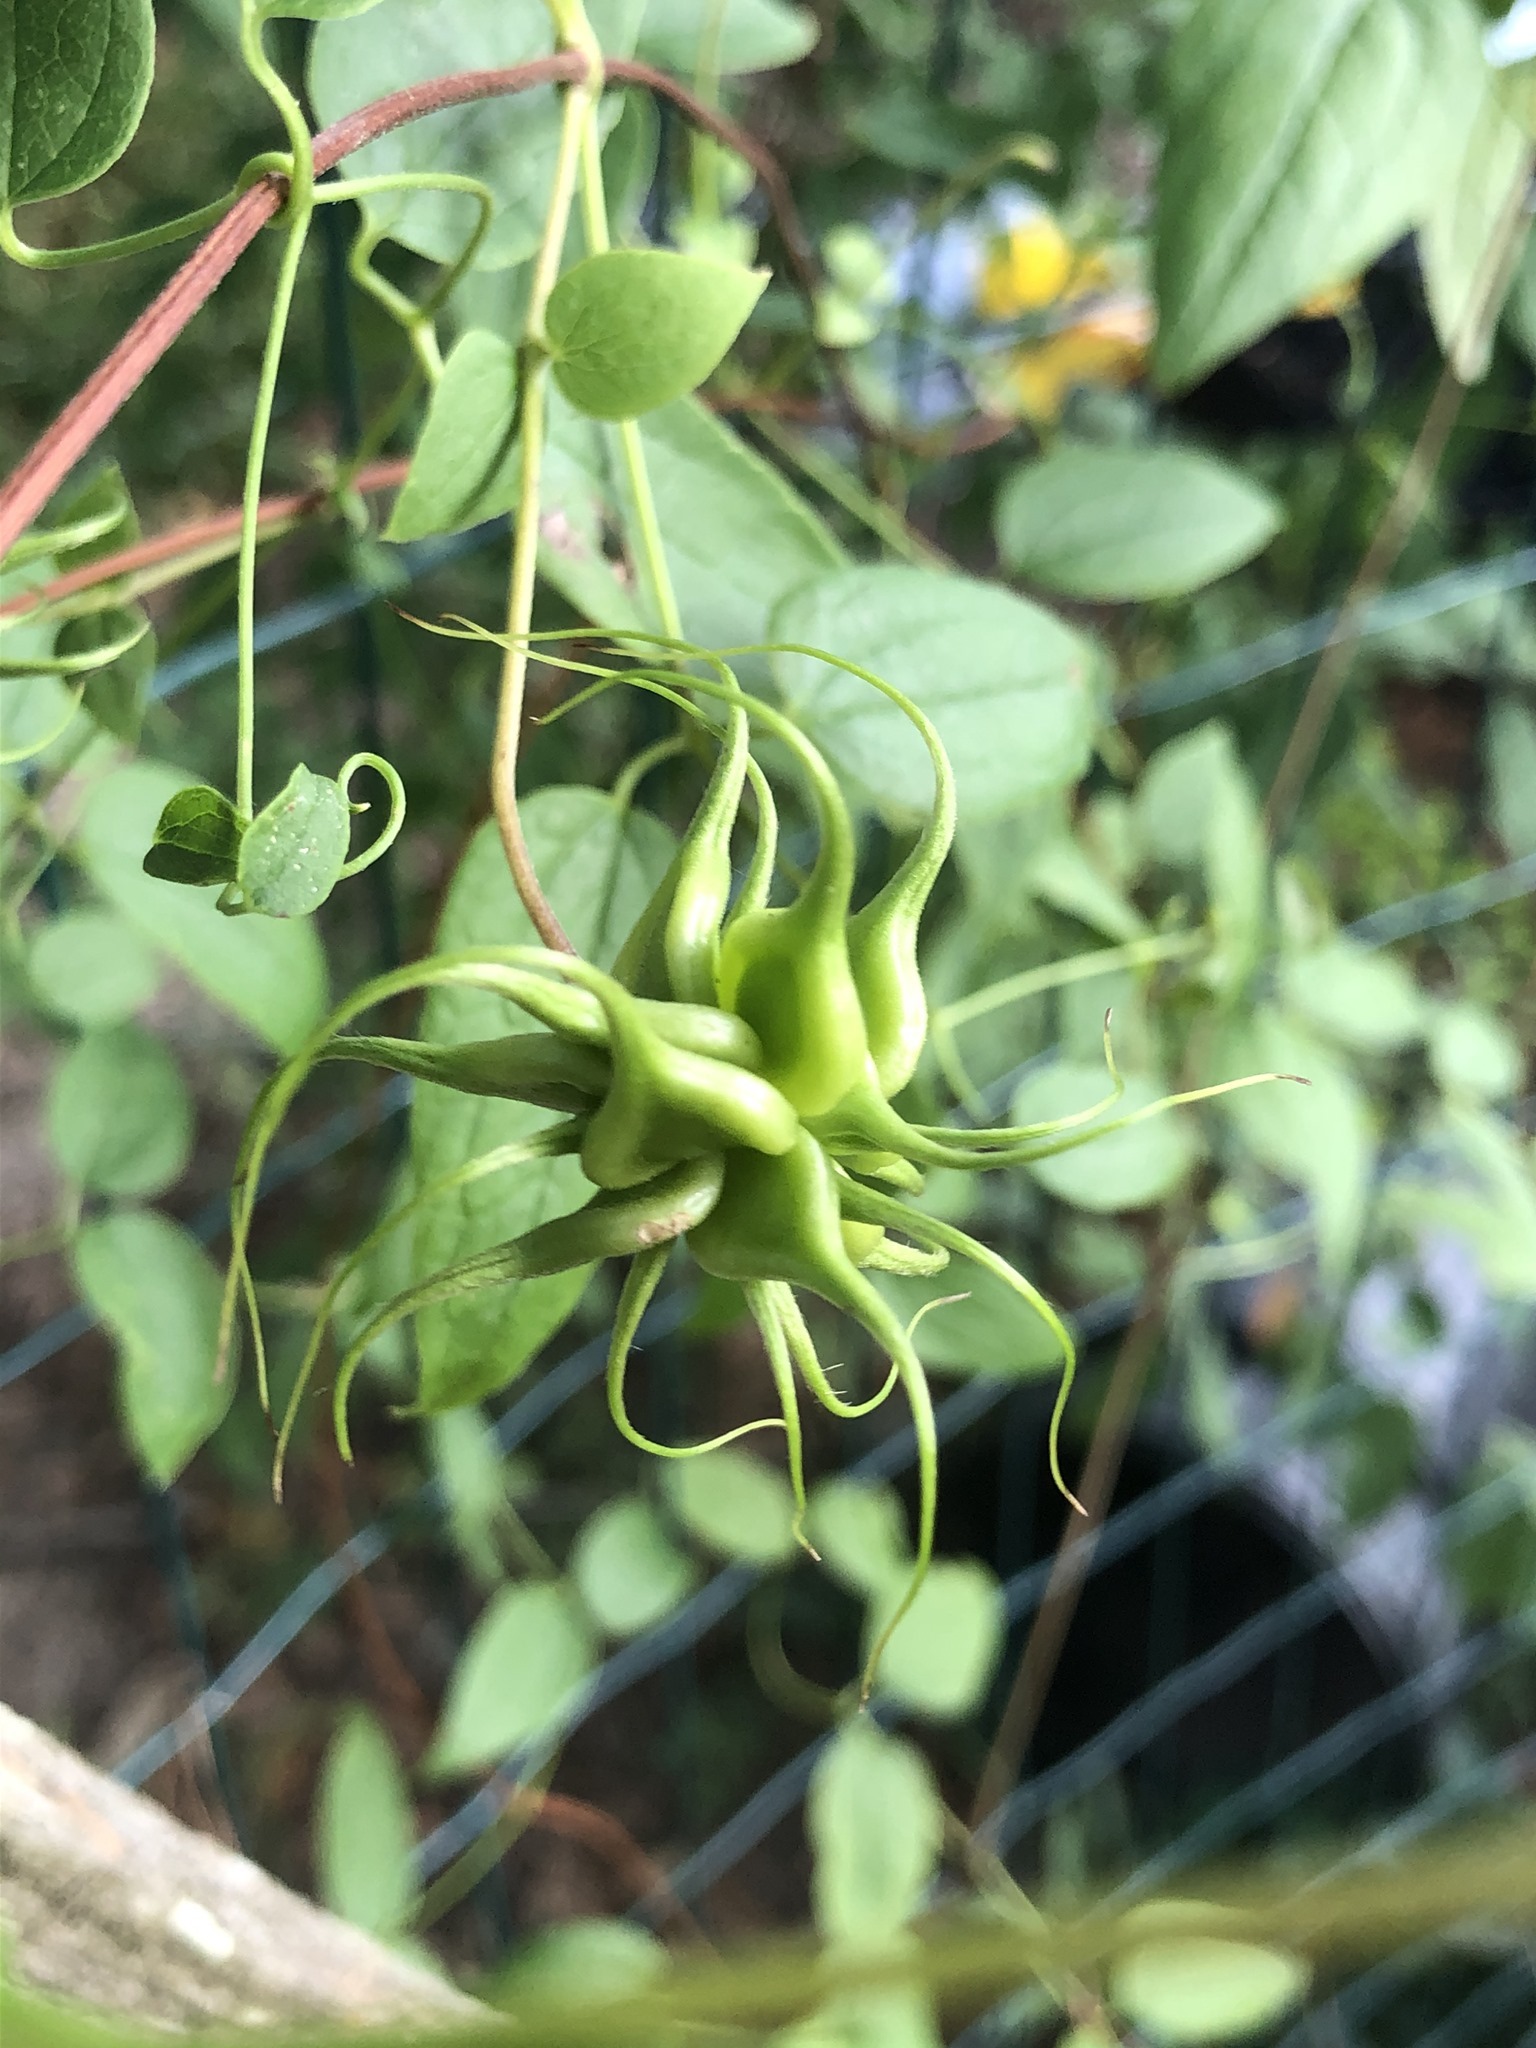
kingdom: Plantae
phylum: Tracheophyta
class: Magnoliopsida
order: Ranunculales
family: Ranunculaceae
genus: Clematis
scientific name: Clematis pitcheri
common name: Bellflower clematis
